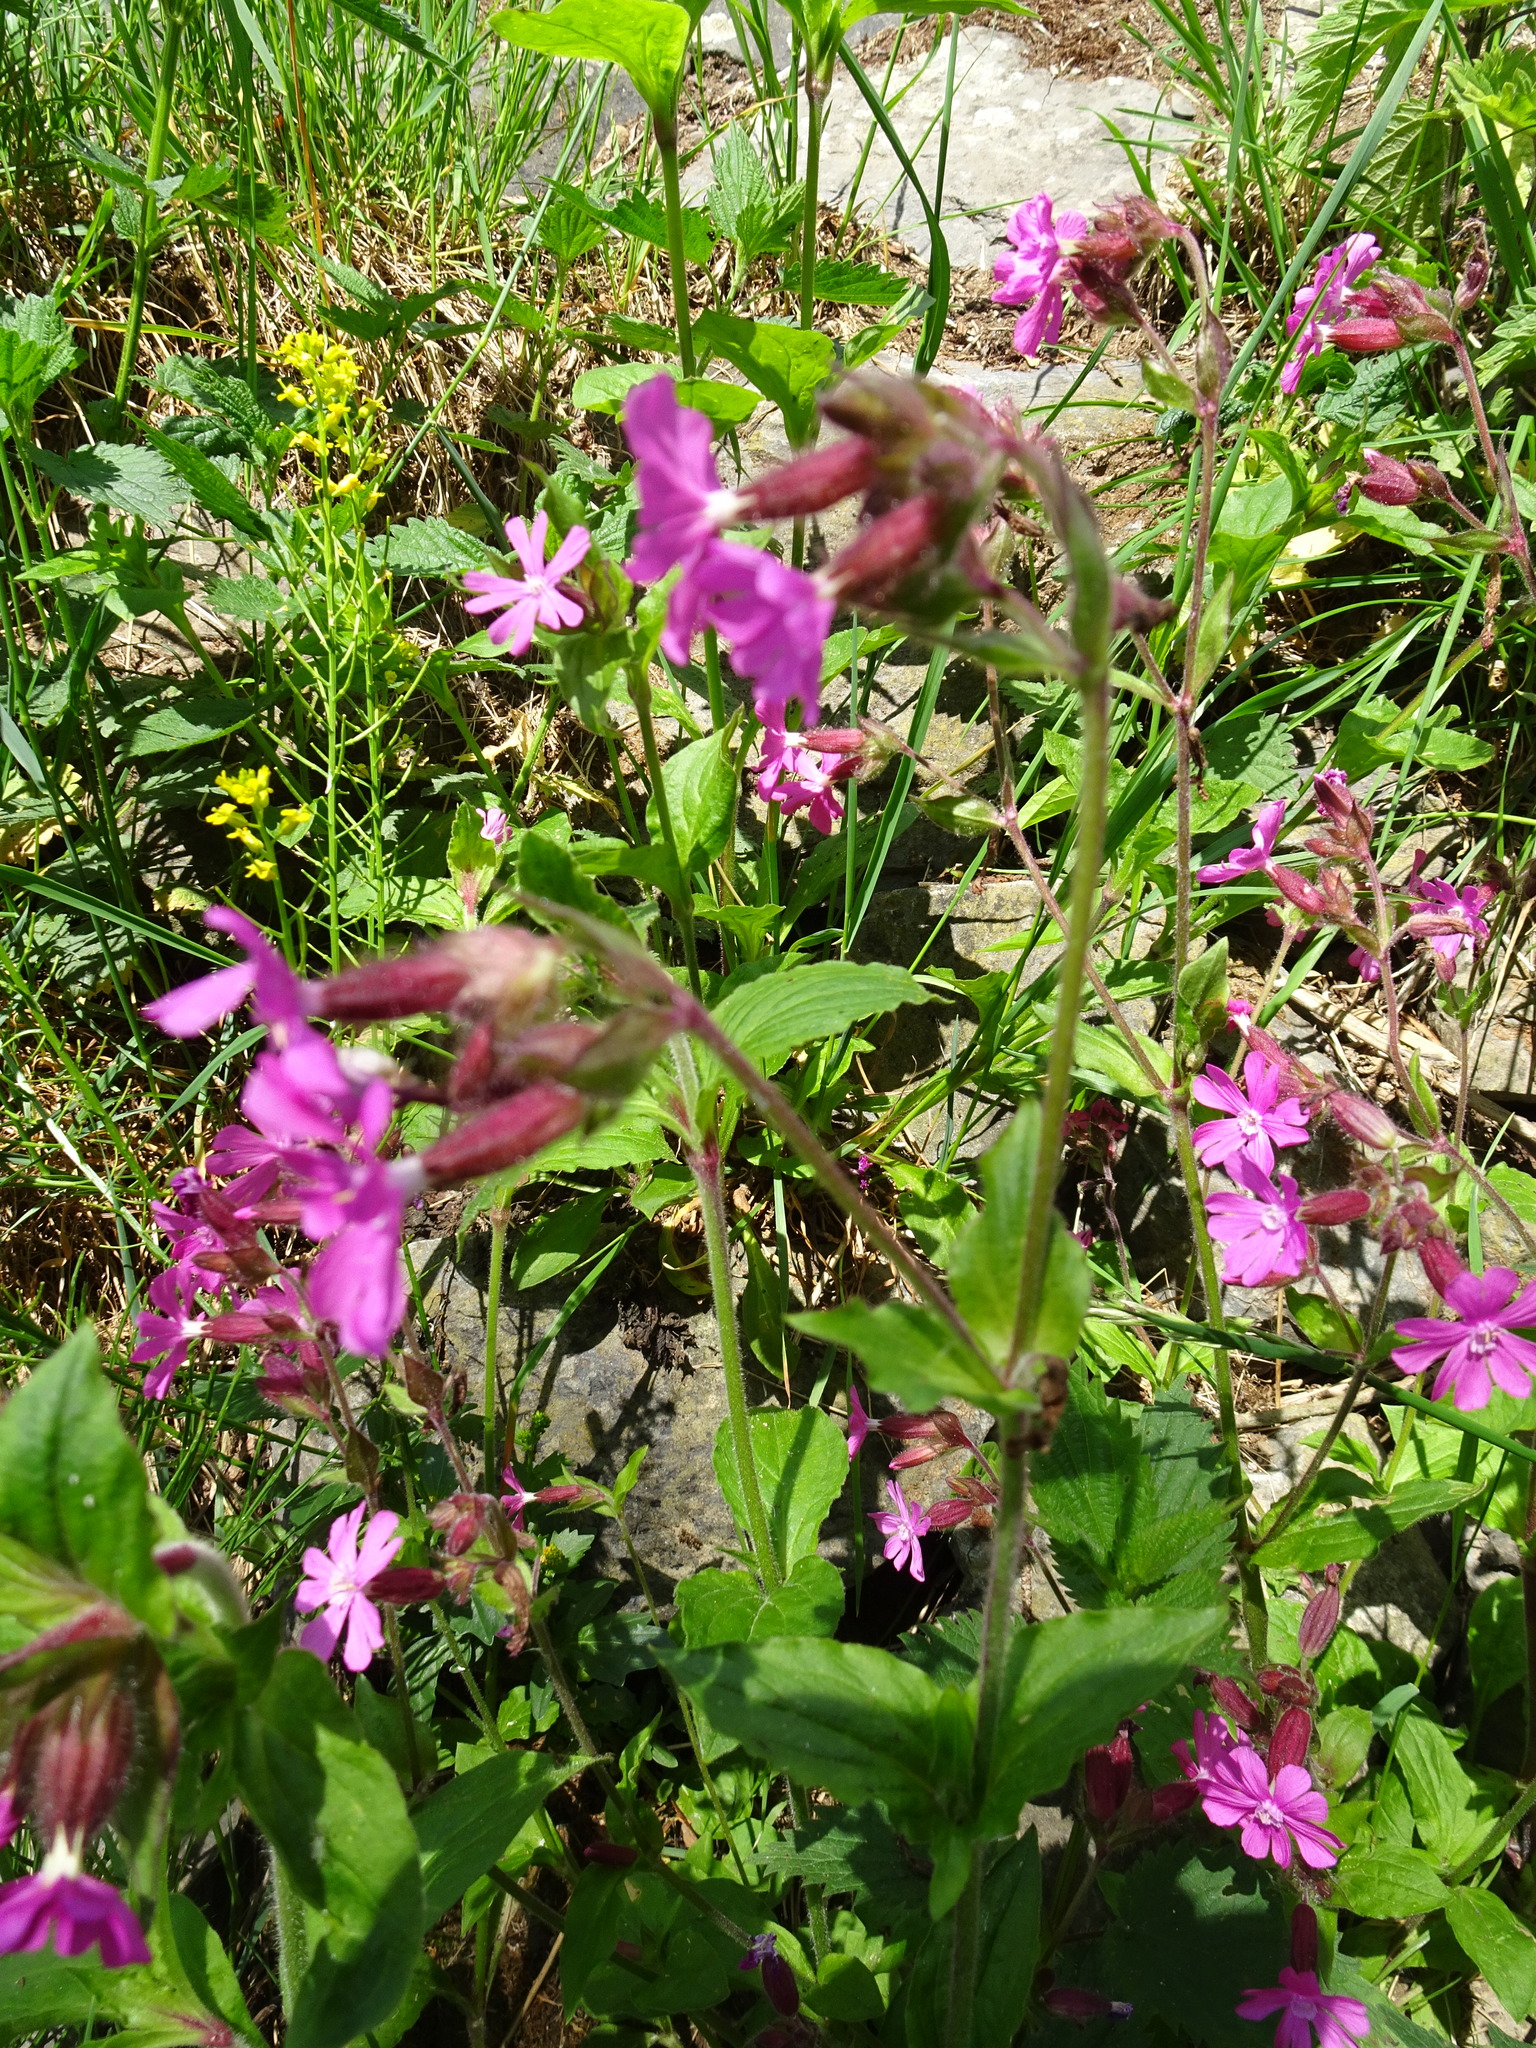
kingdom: Plantae
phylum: Tracheophyta
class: Magnoliopsida
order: Caryophyllales
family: Caryophyllaceae
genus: Silene
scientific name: Silene dioica
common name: Red campion
